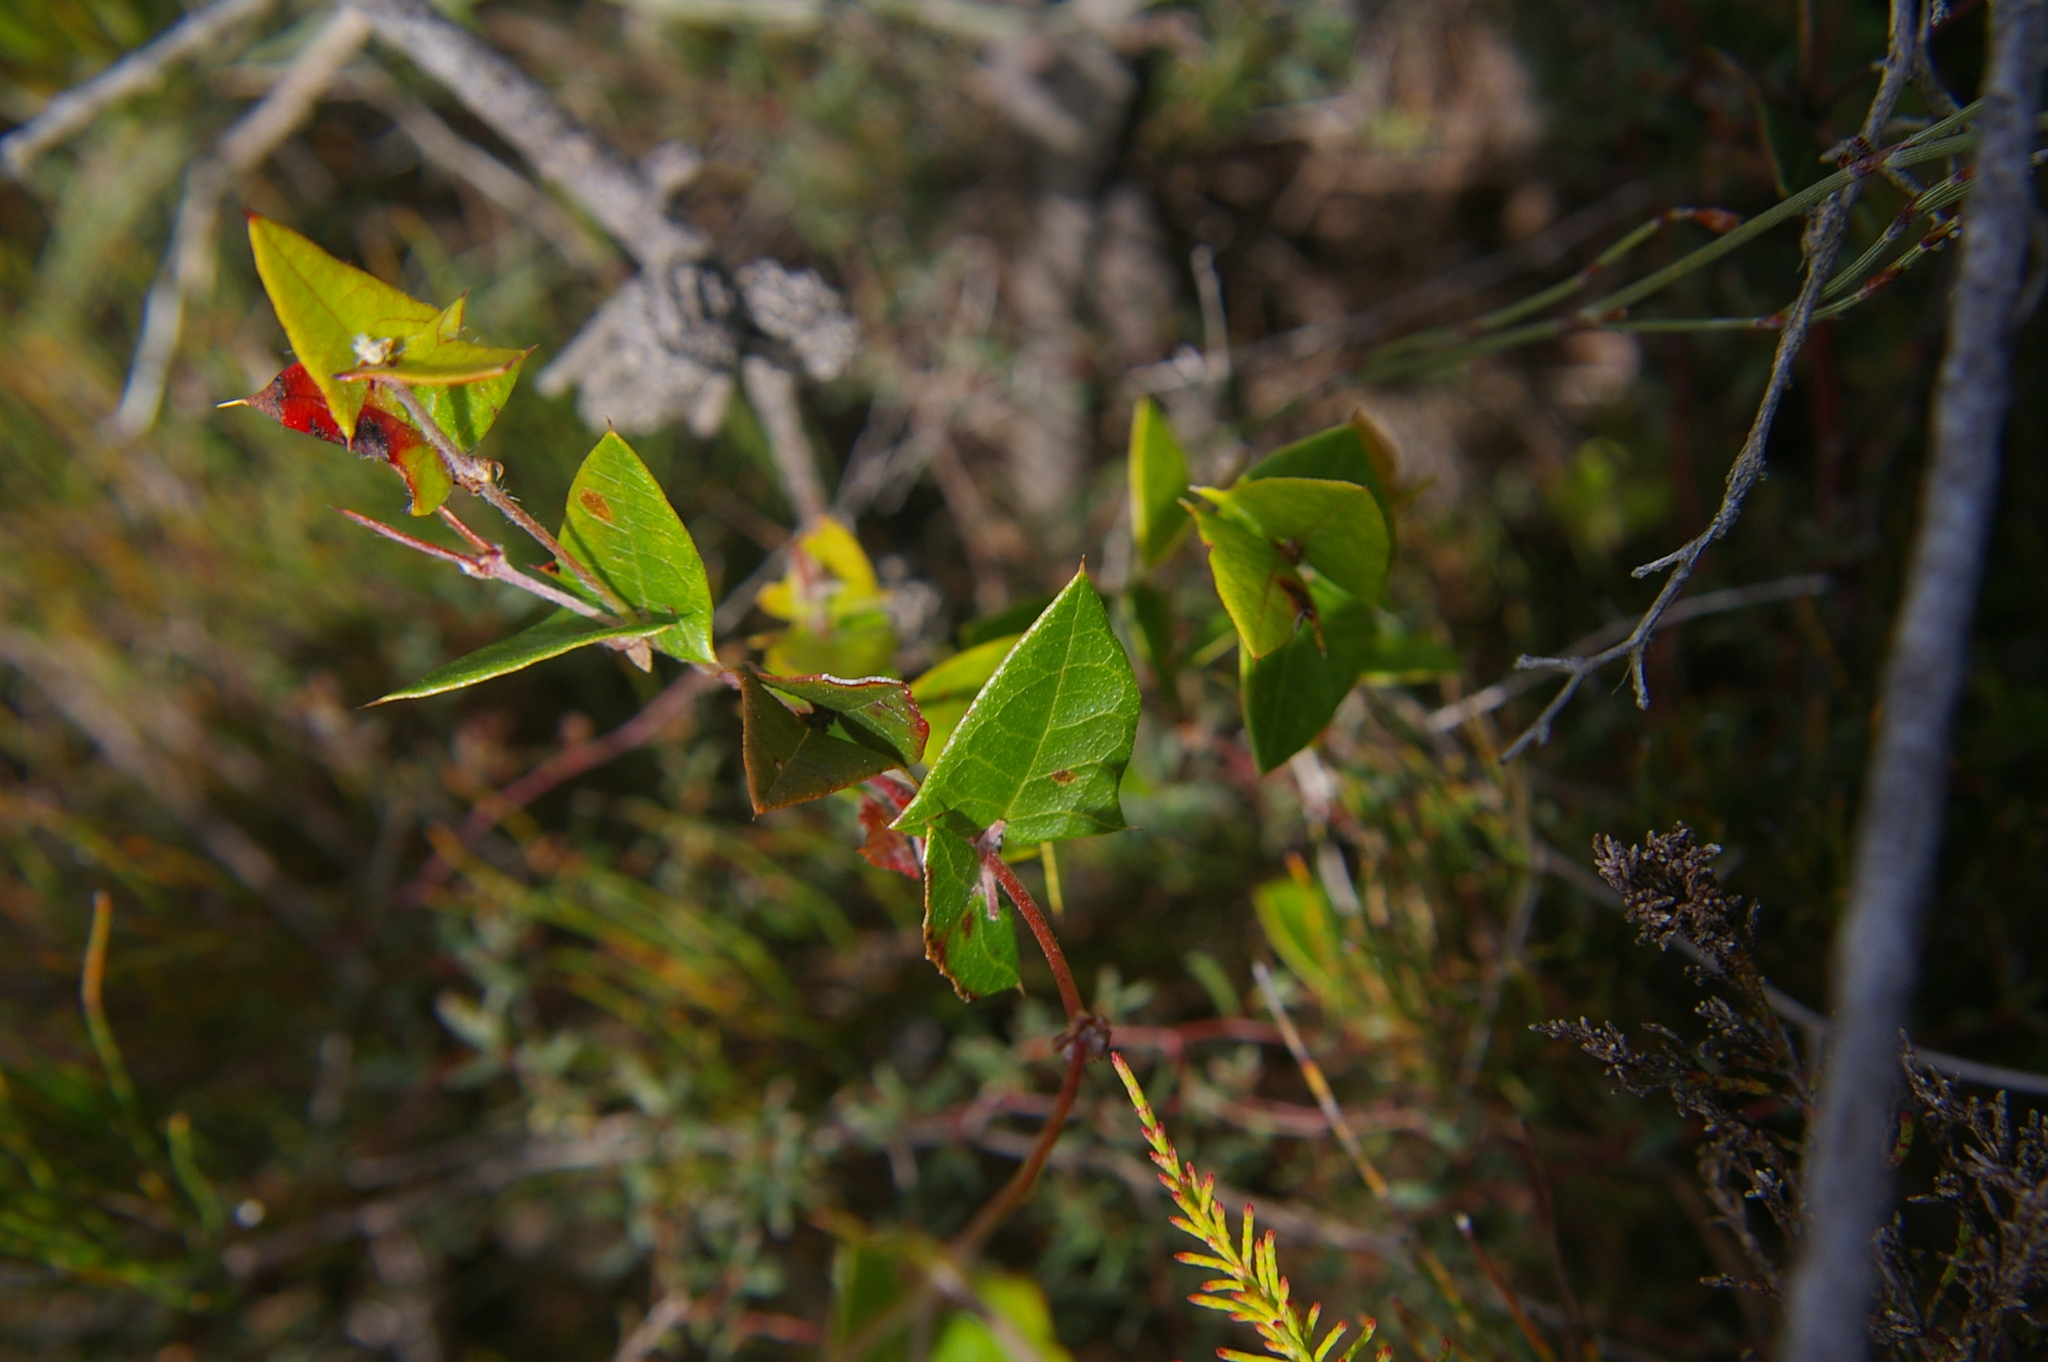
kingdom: Plantae
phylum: Tracheophyta
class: Magnoliopsida
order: Fabales
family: Fabaceae
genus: Platylobium
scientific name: Platylobium obtusangulum
